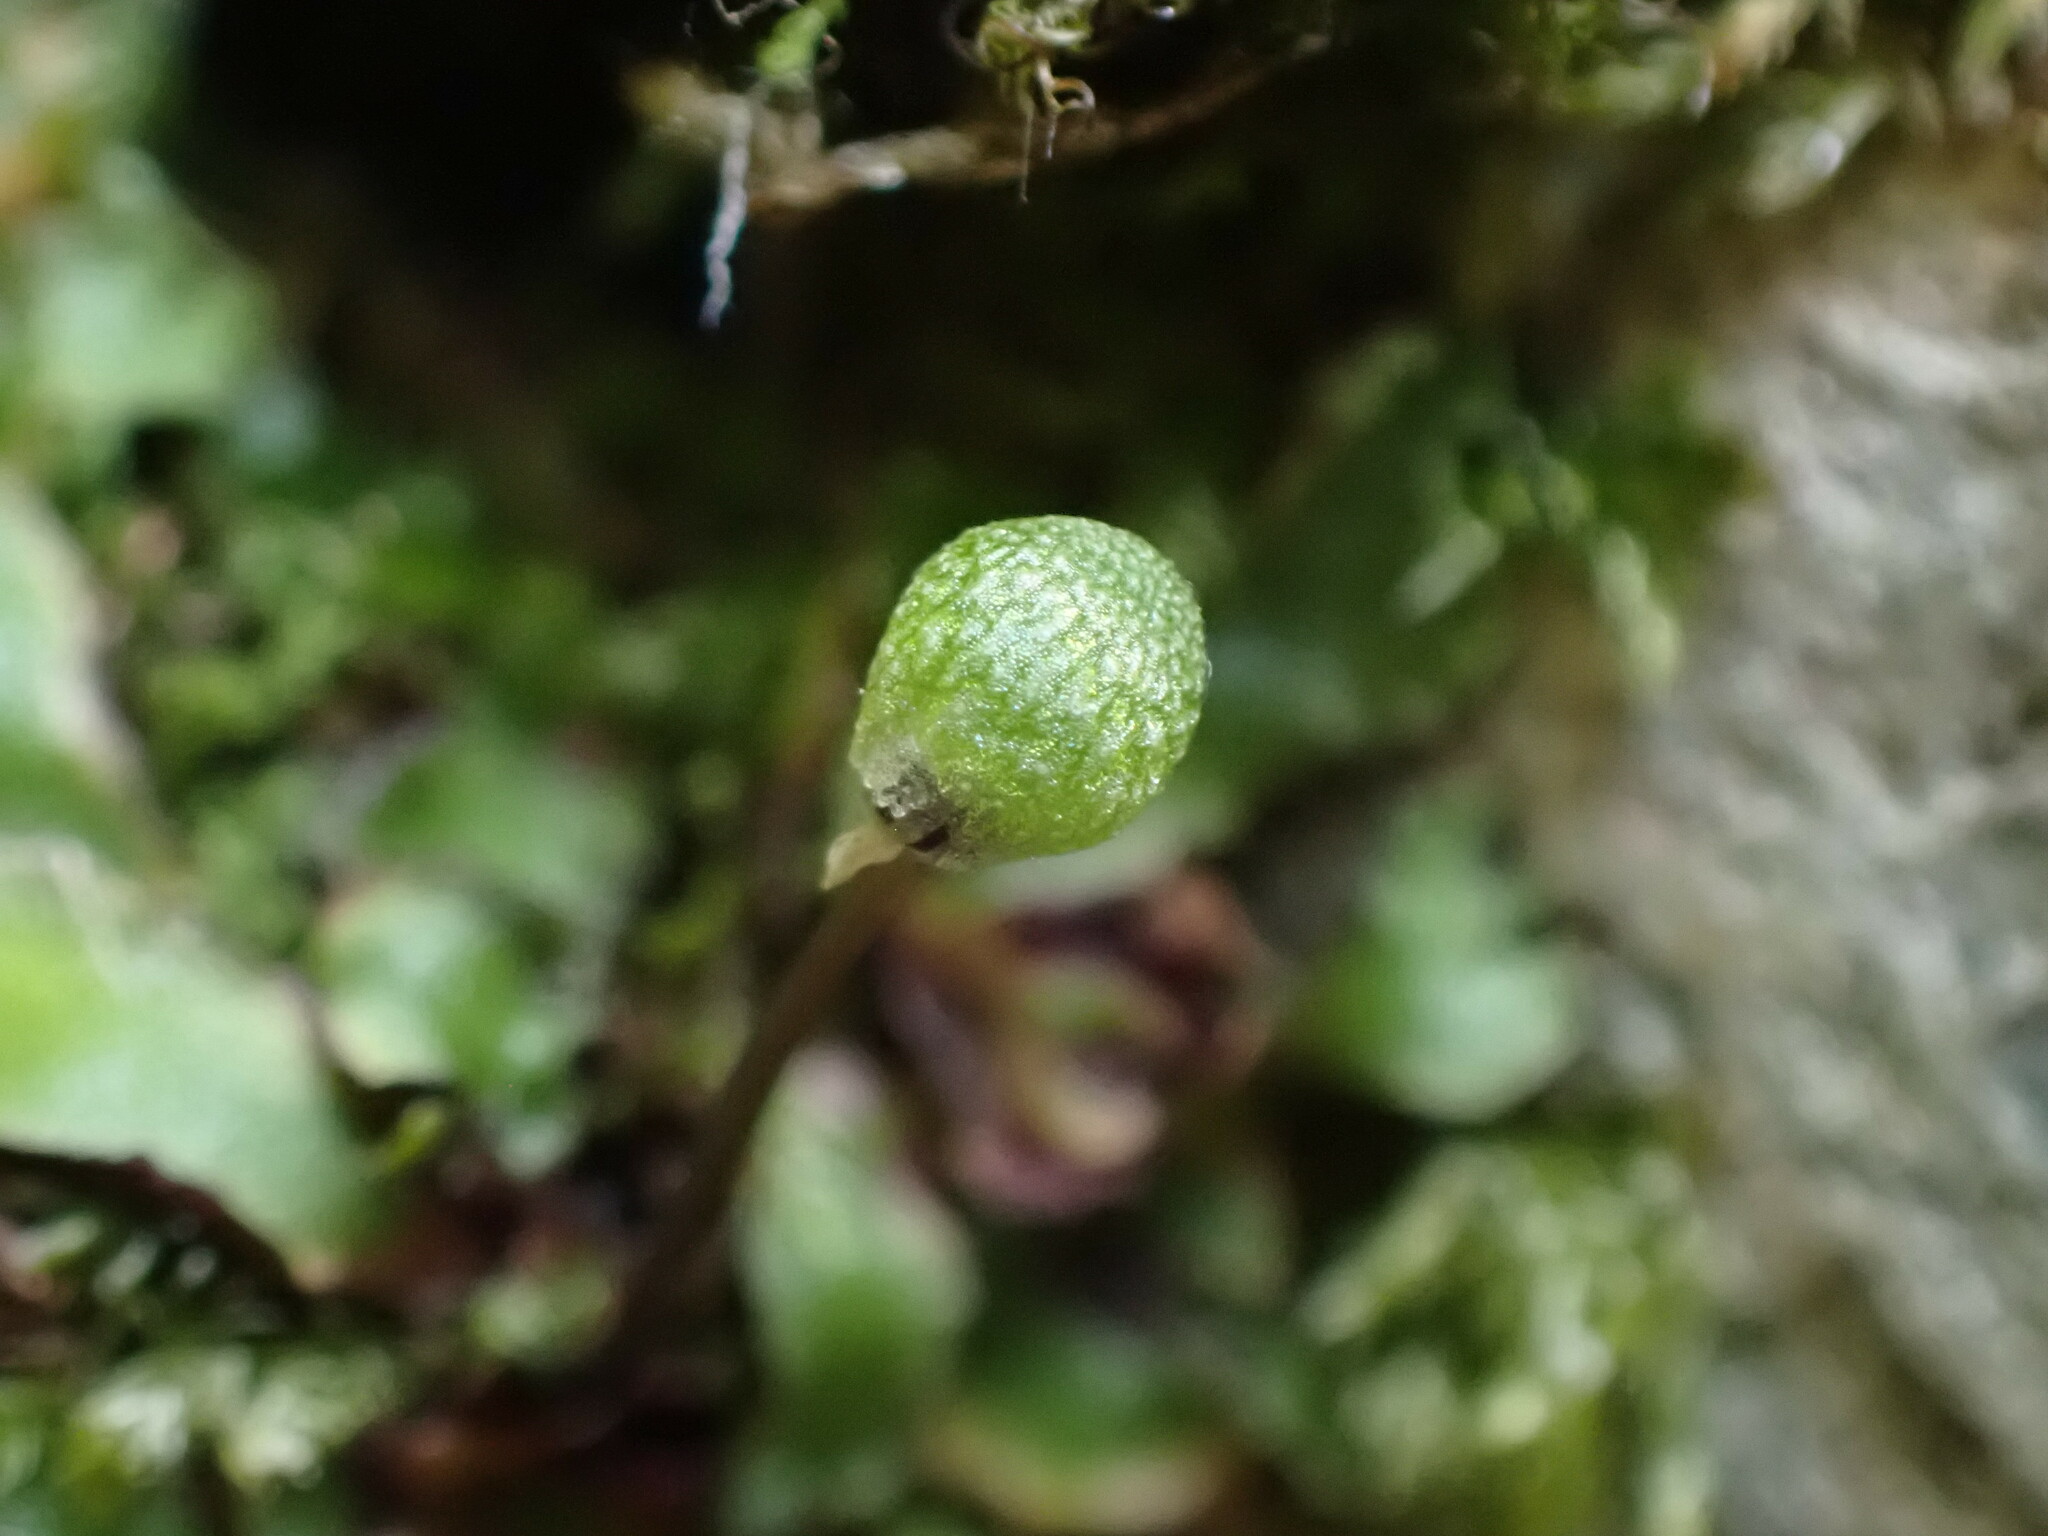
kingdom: Plantae
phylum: Marchantiophyta
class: Marchantiopsida
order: Marchantiales
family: Aytoniaceae
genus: Mannia
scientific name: Mannia gracilis
